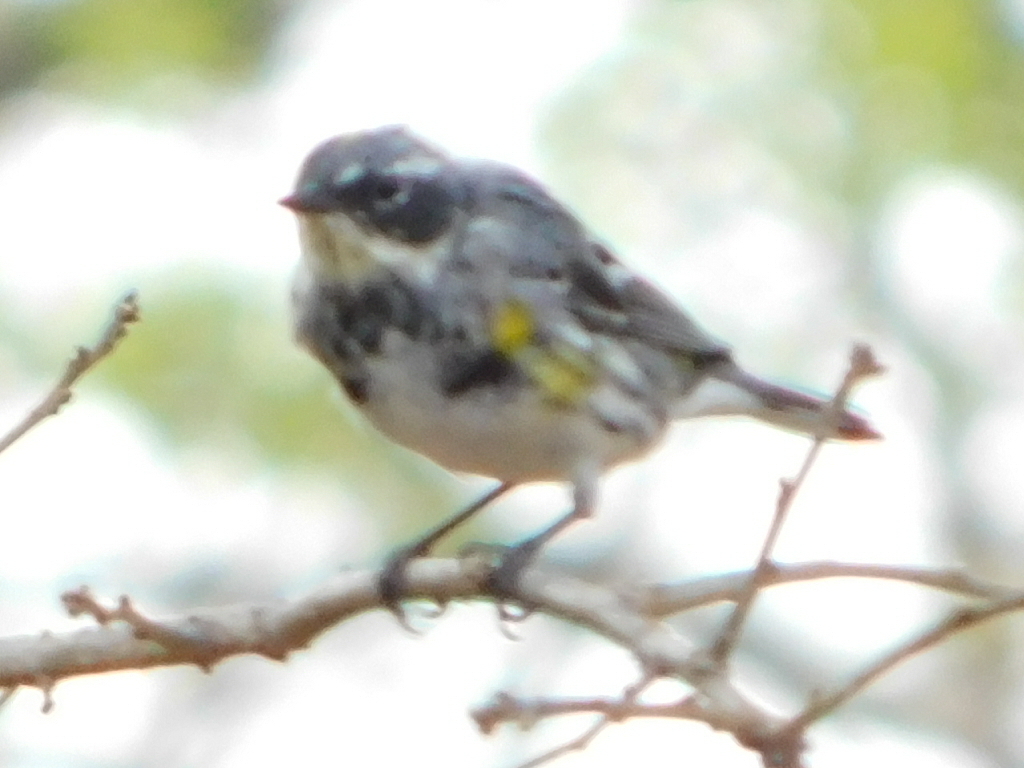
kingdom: Animalia
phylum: Chordata
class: Aves
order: Passeriformes
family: Parulidae
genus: Setophaga
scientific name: Setophaga coronata
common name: Myrtle warbler
